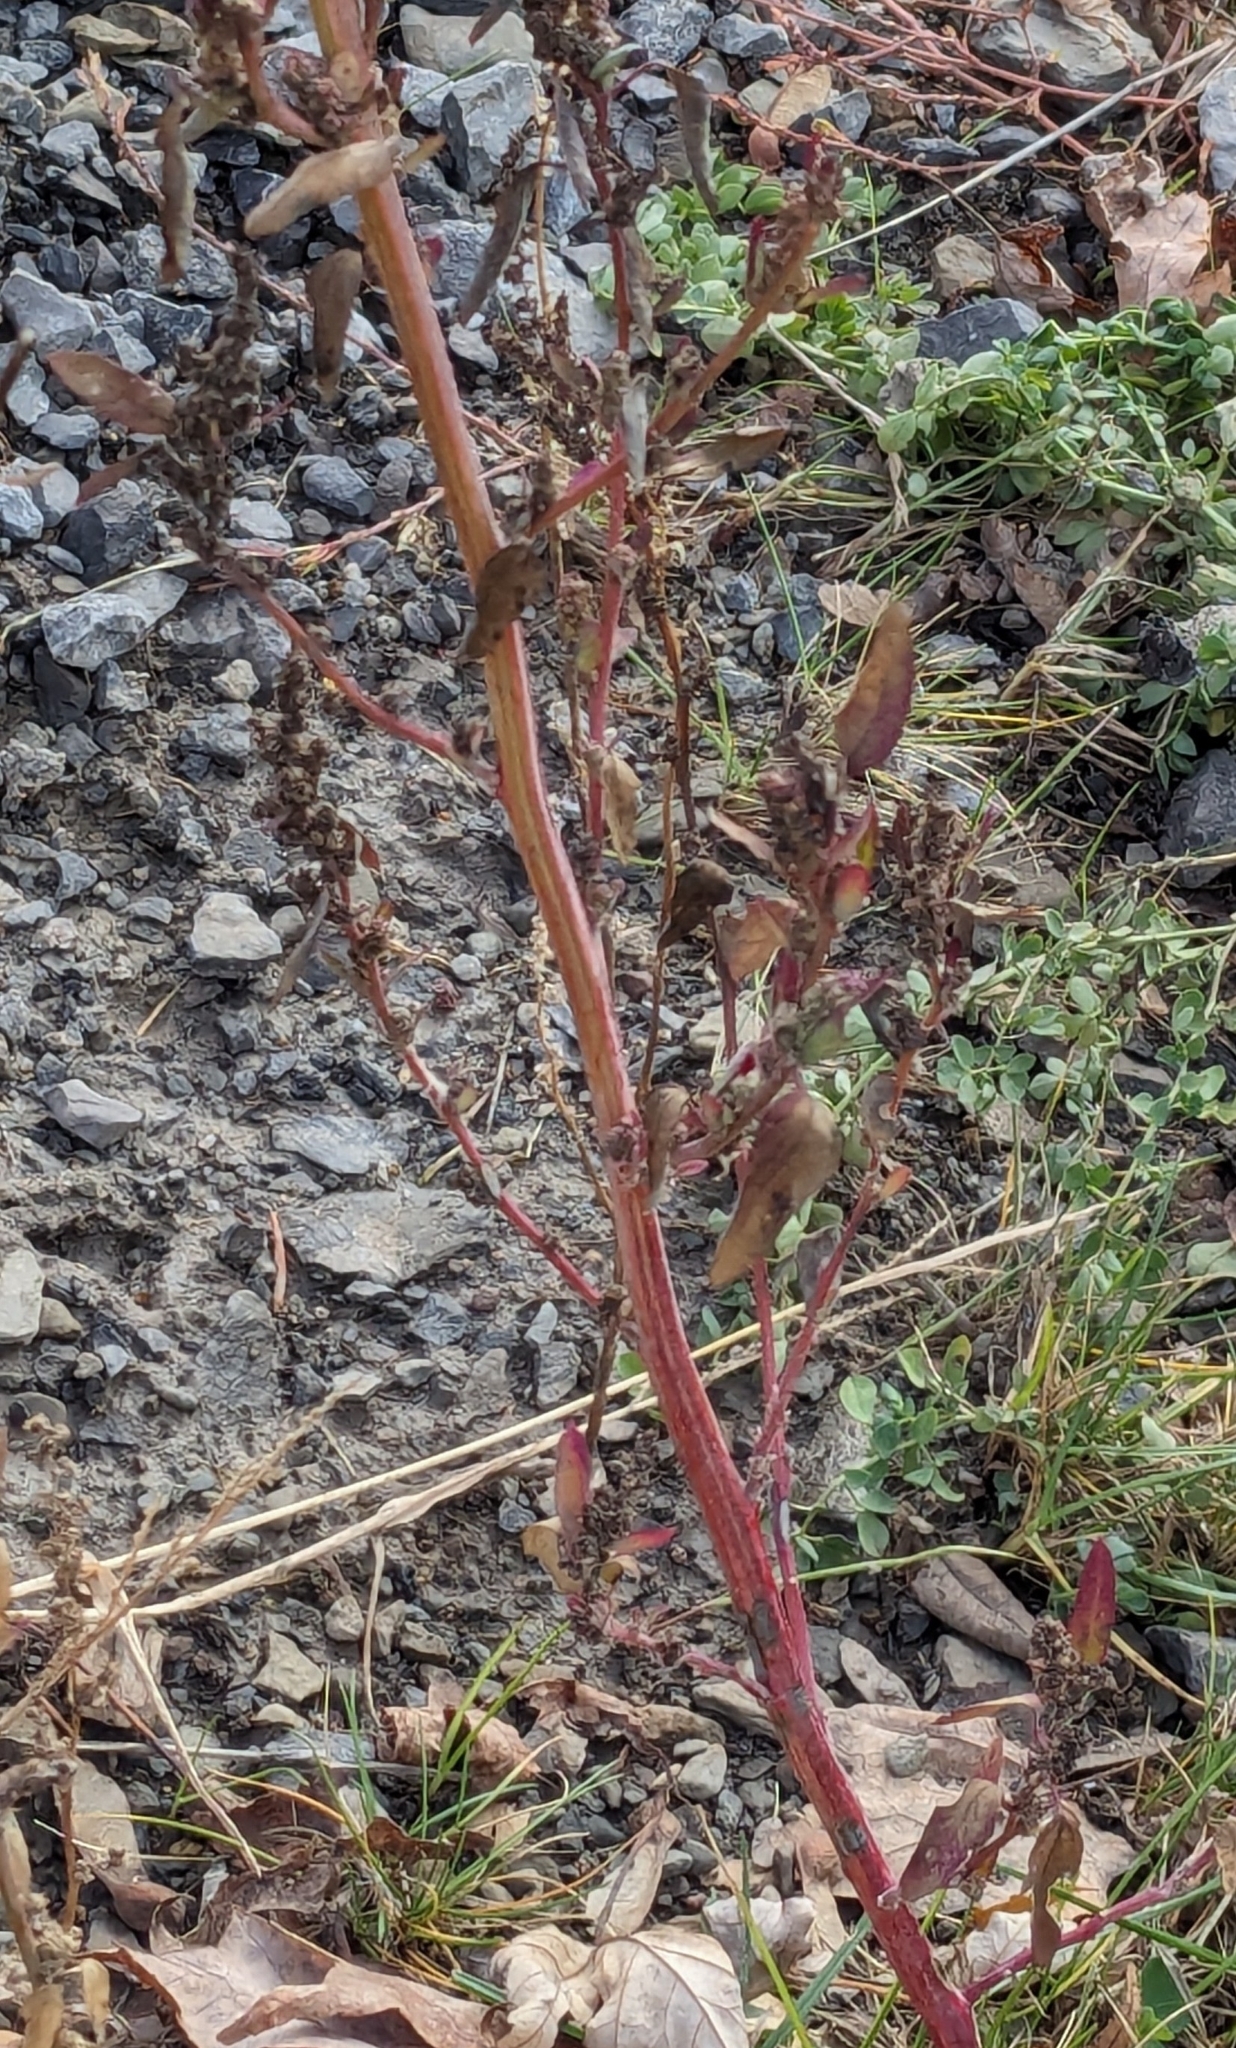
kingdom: Plantae
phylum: Tracheophyta
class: Magnoliopsida
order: Caryophyllales
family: Amaranthaceae
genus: Chenopodium
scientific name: Chenopodium album
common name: Fat-hen
